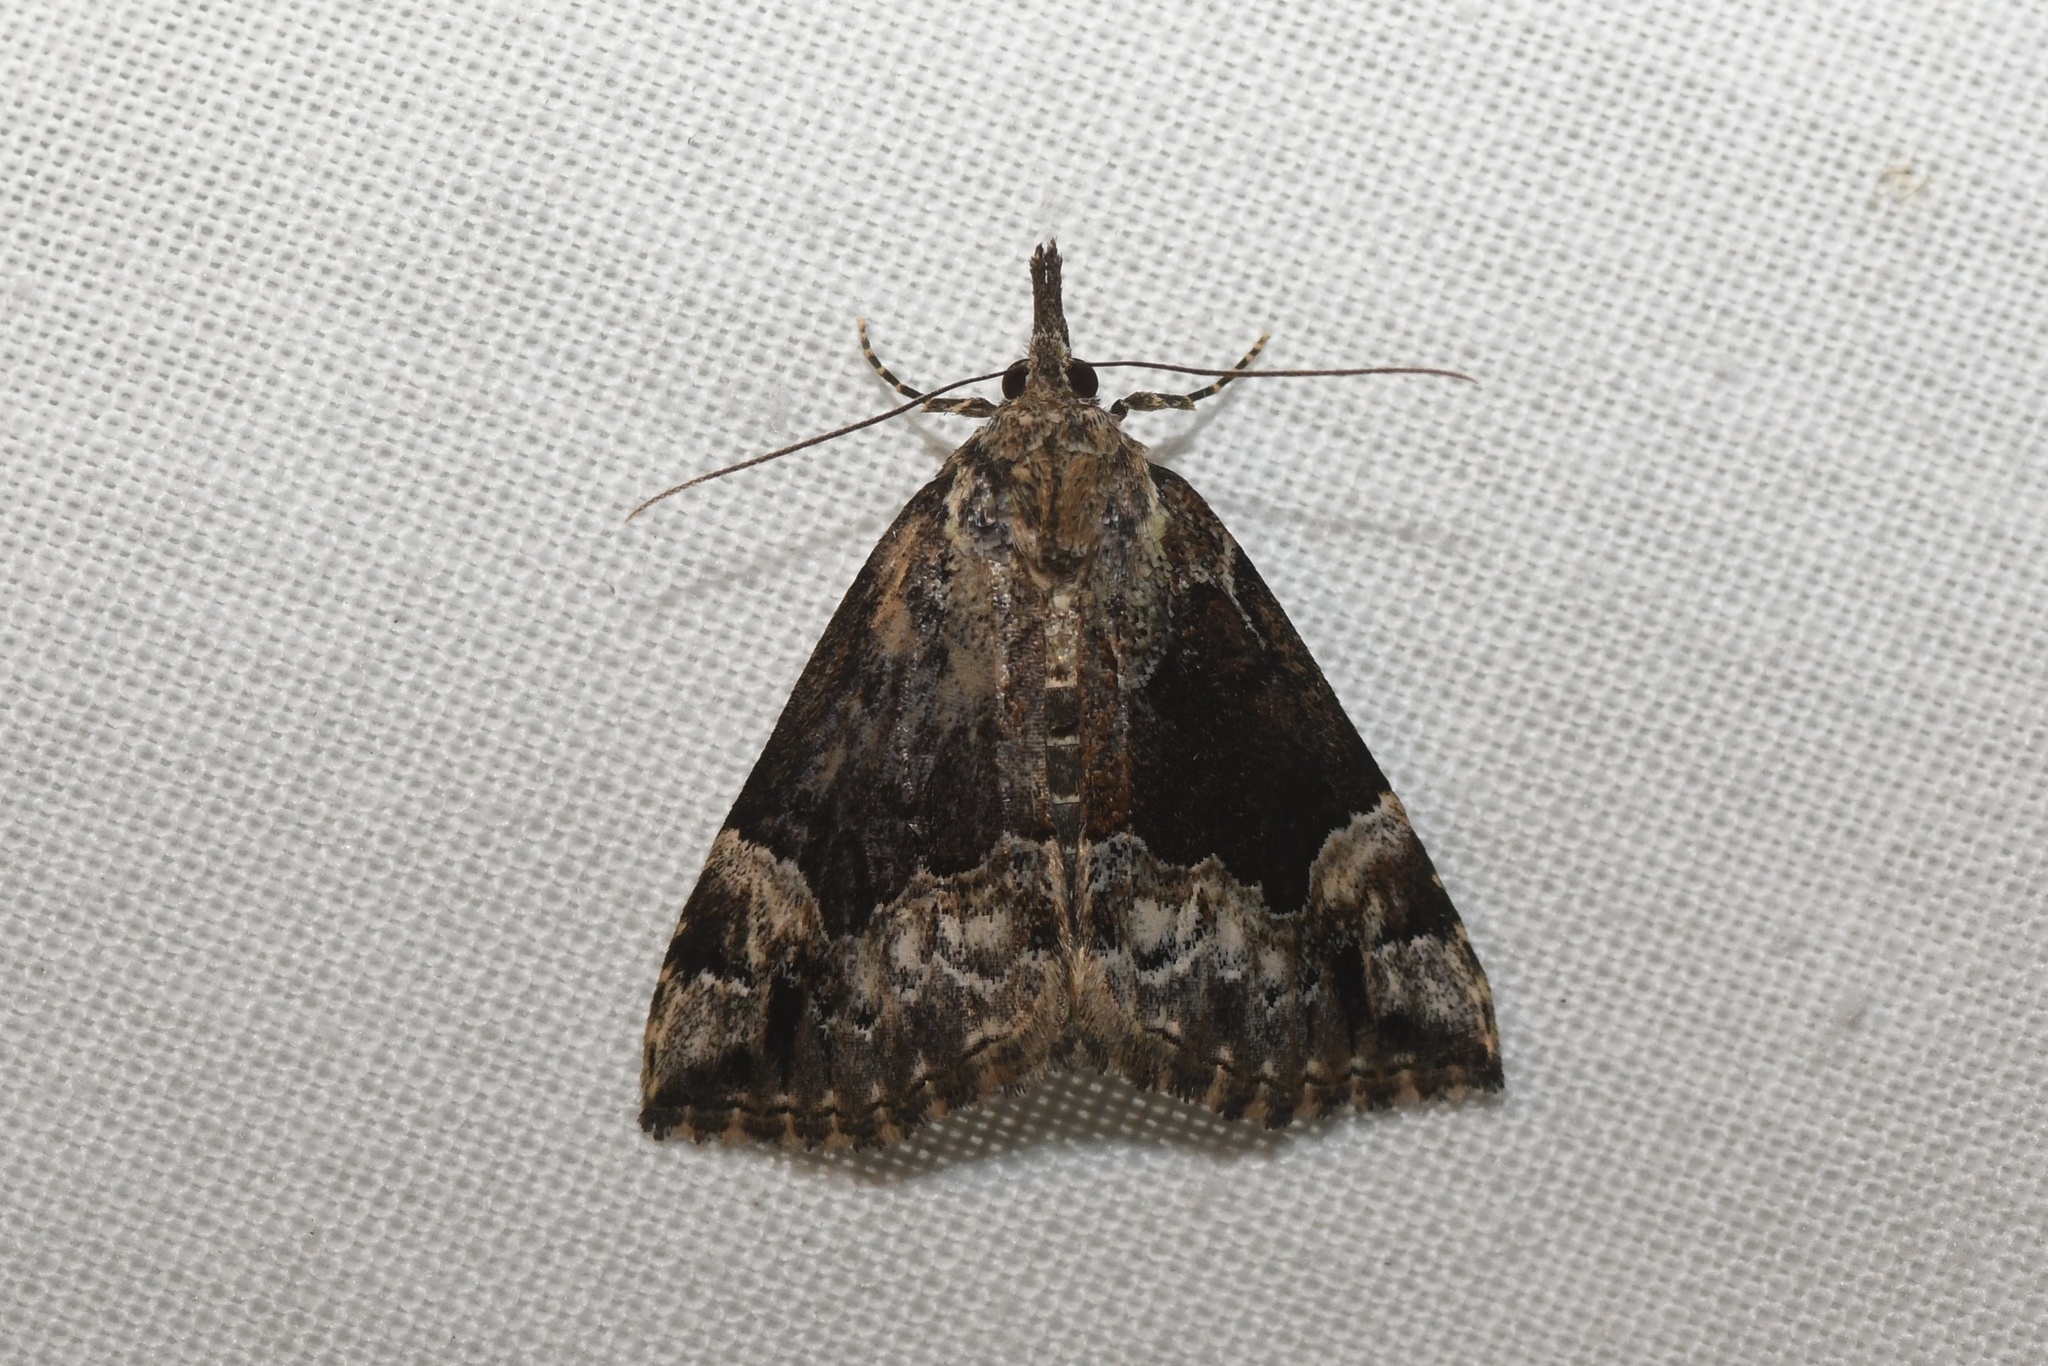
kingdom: Animalia
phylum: Arthropoda
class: Insecta
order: Lepidoptera
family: Erebidae
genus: Hypena
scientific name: Hypena palparia
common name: Mottled bomolocha moth
